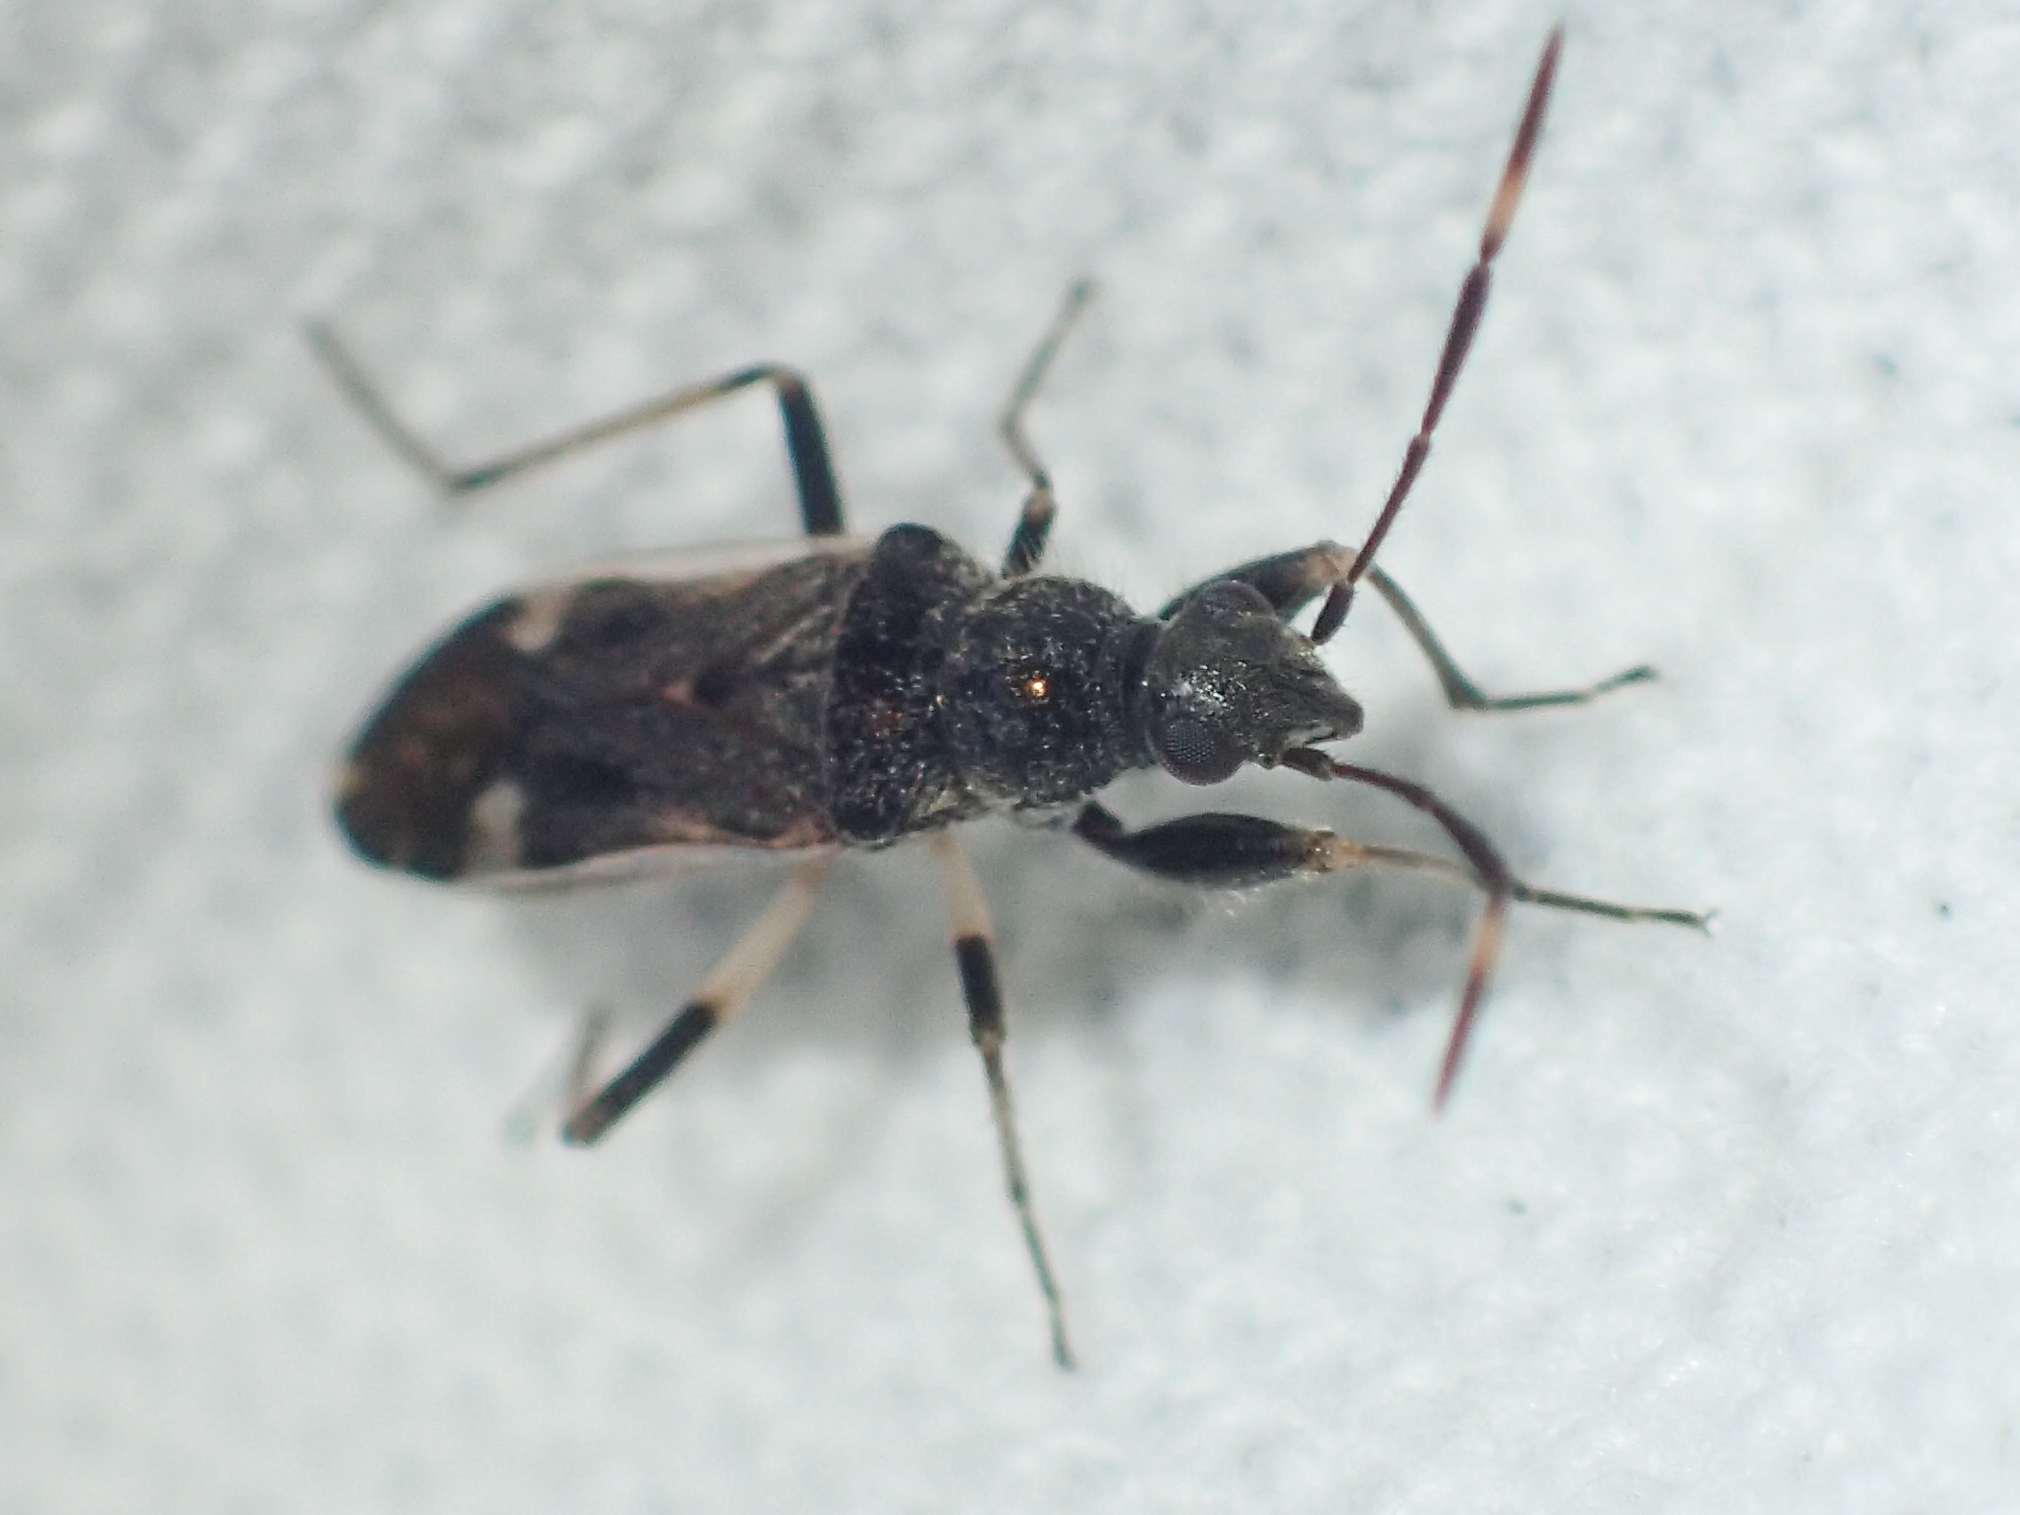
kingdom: Animalia
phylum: Arthropoda
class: Insecta
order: Hemiptera
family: Rhyparochromidae
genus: Horridipamera
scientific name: Horridipamera nietneri
